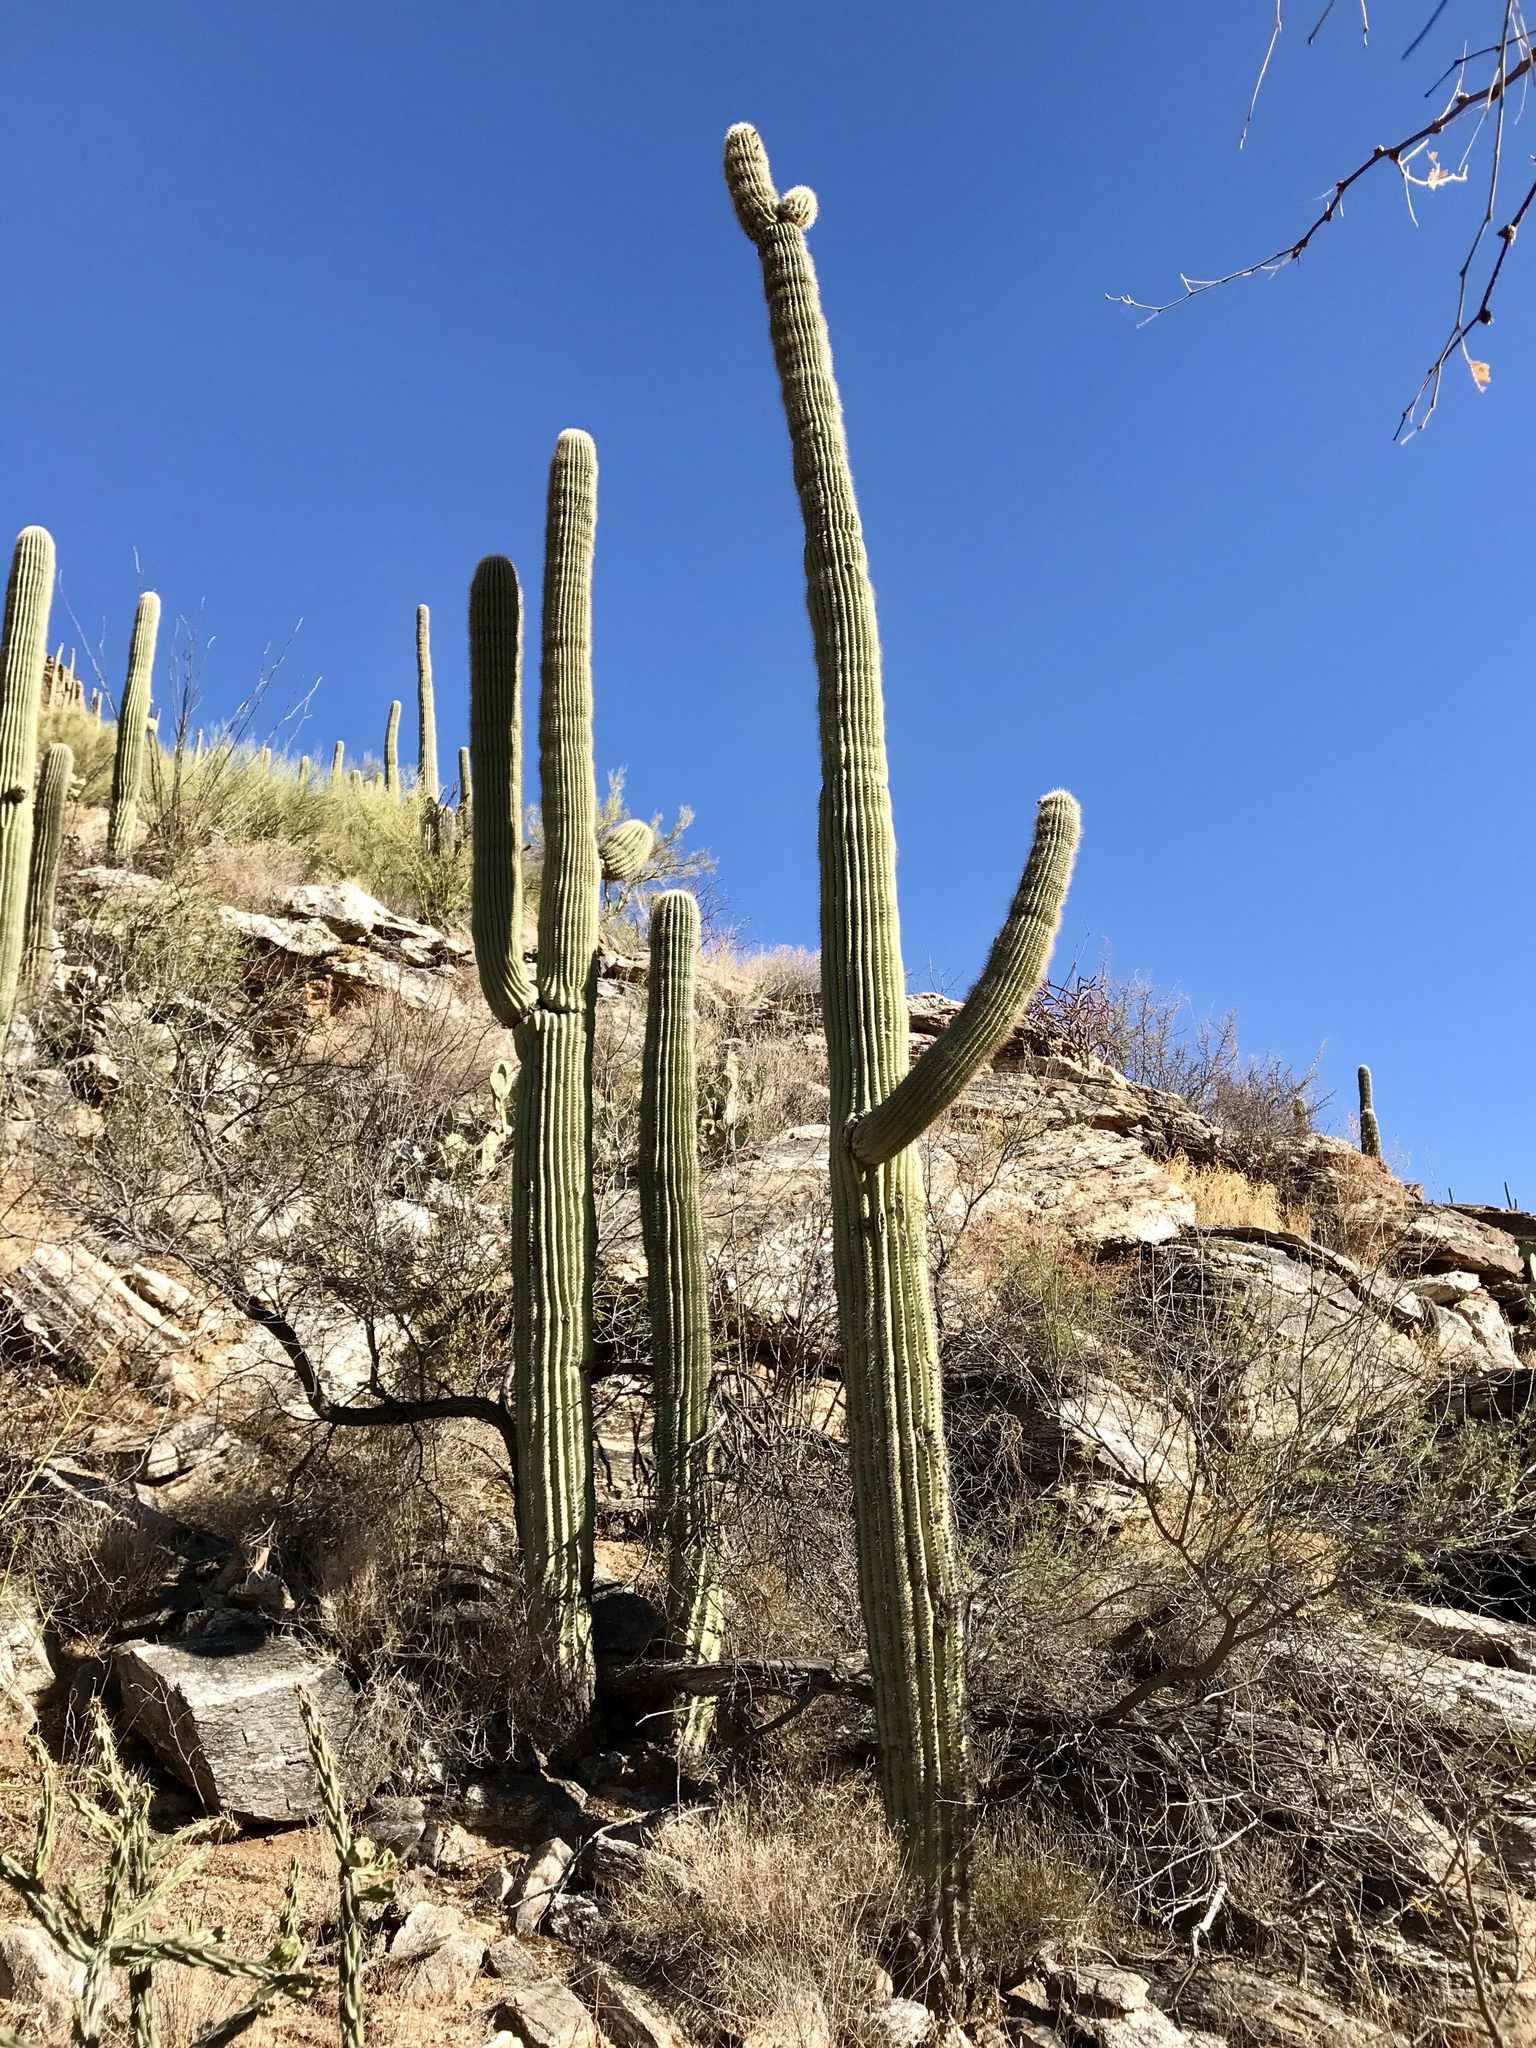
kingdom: Plantae
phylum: Tracheophyta
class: Magnoliopsida
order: Caryophyllales
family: Cactaceae
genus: Carnegiea
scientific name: Carnegiea gigantea
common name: Saguaro
